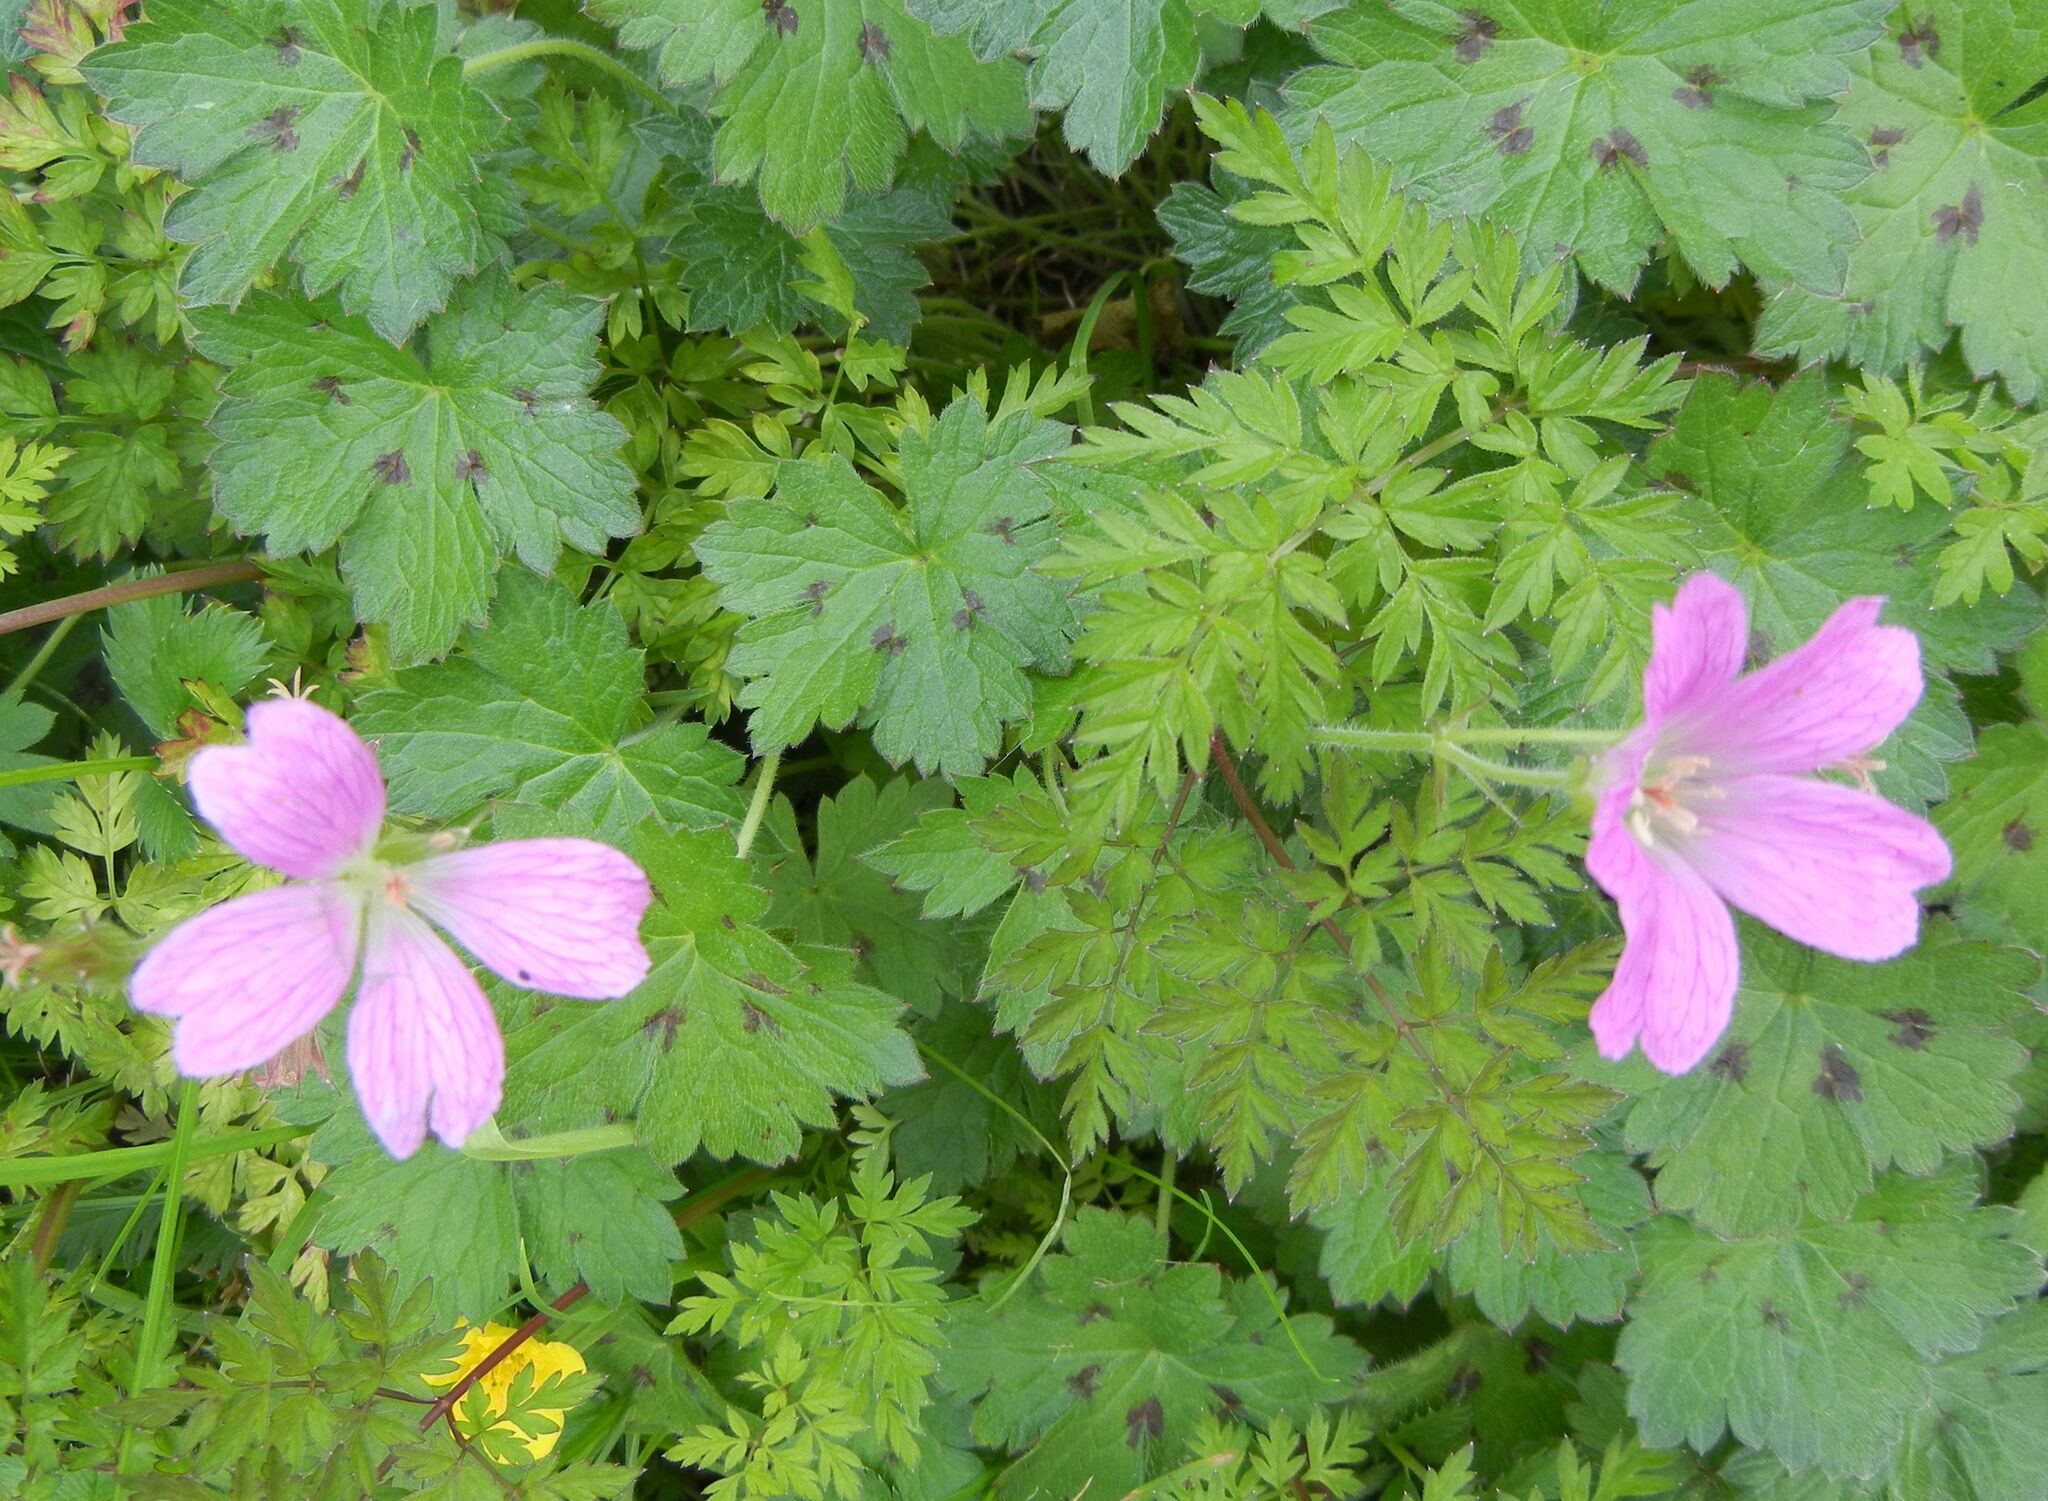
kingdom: Plantae
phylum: Tracheophyta
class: Magnoliopsida
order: Geraniales
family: Geraniaceae
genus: Geranium
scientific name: Geranium oxonianum
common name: Druce's crane's-bill
